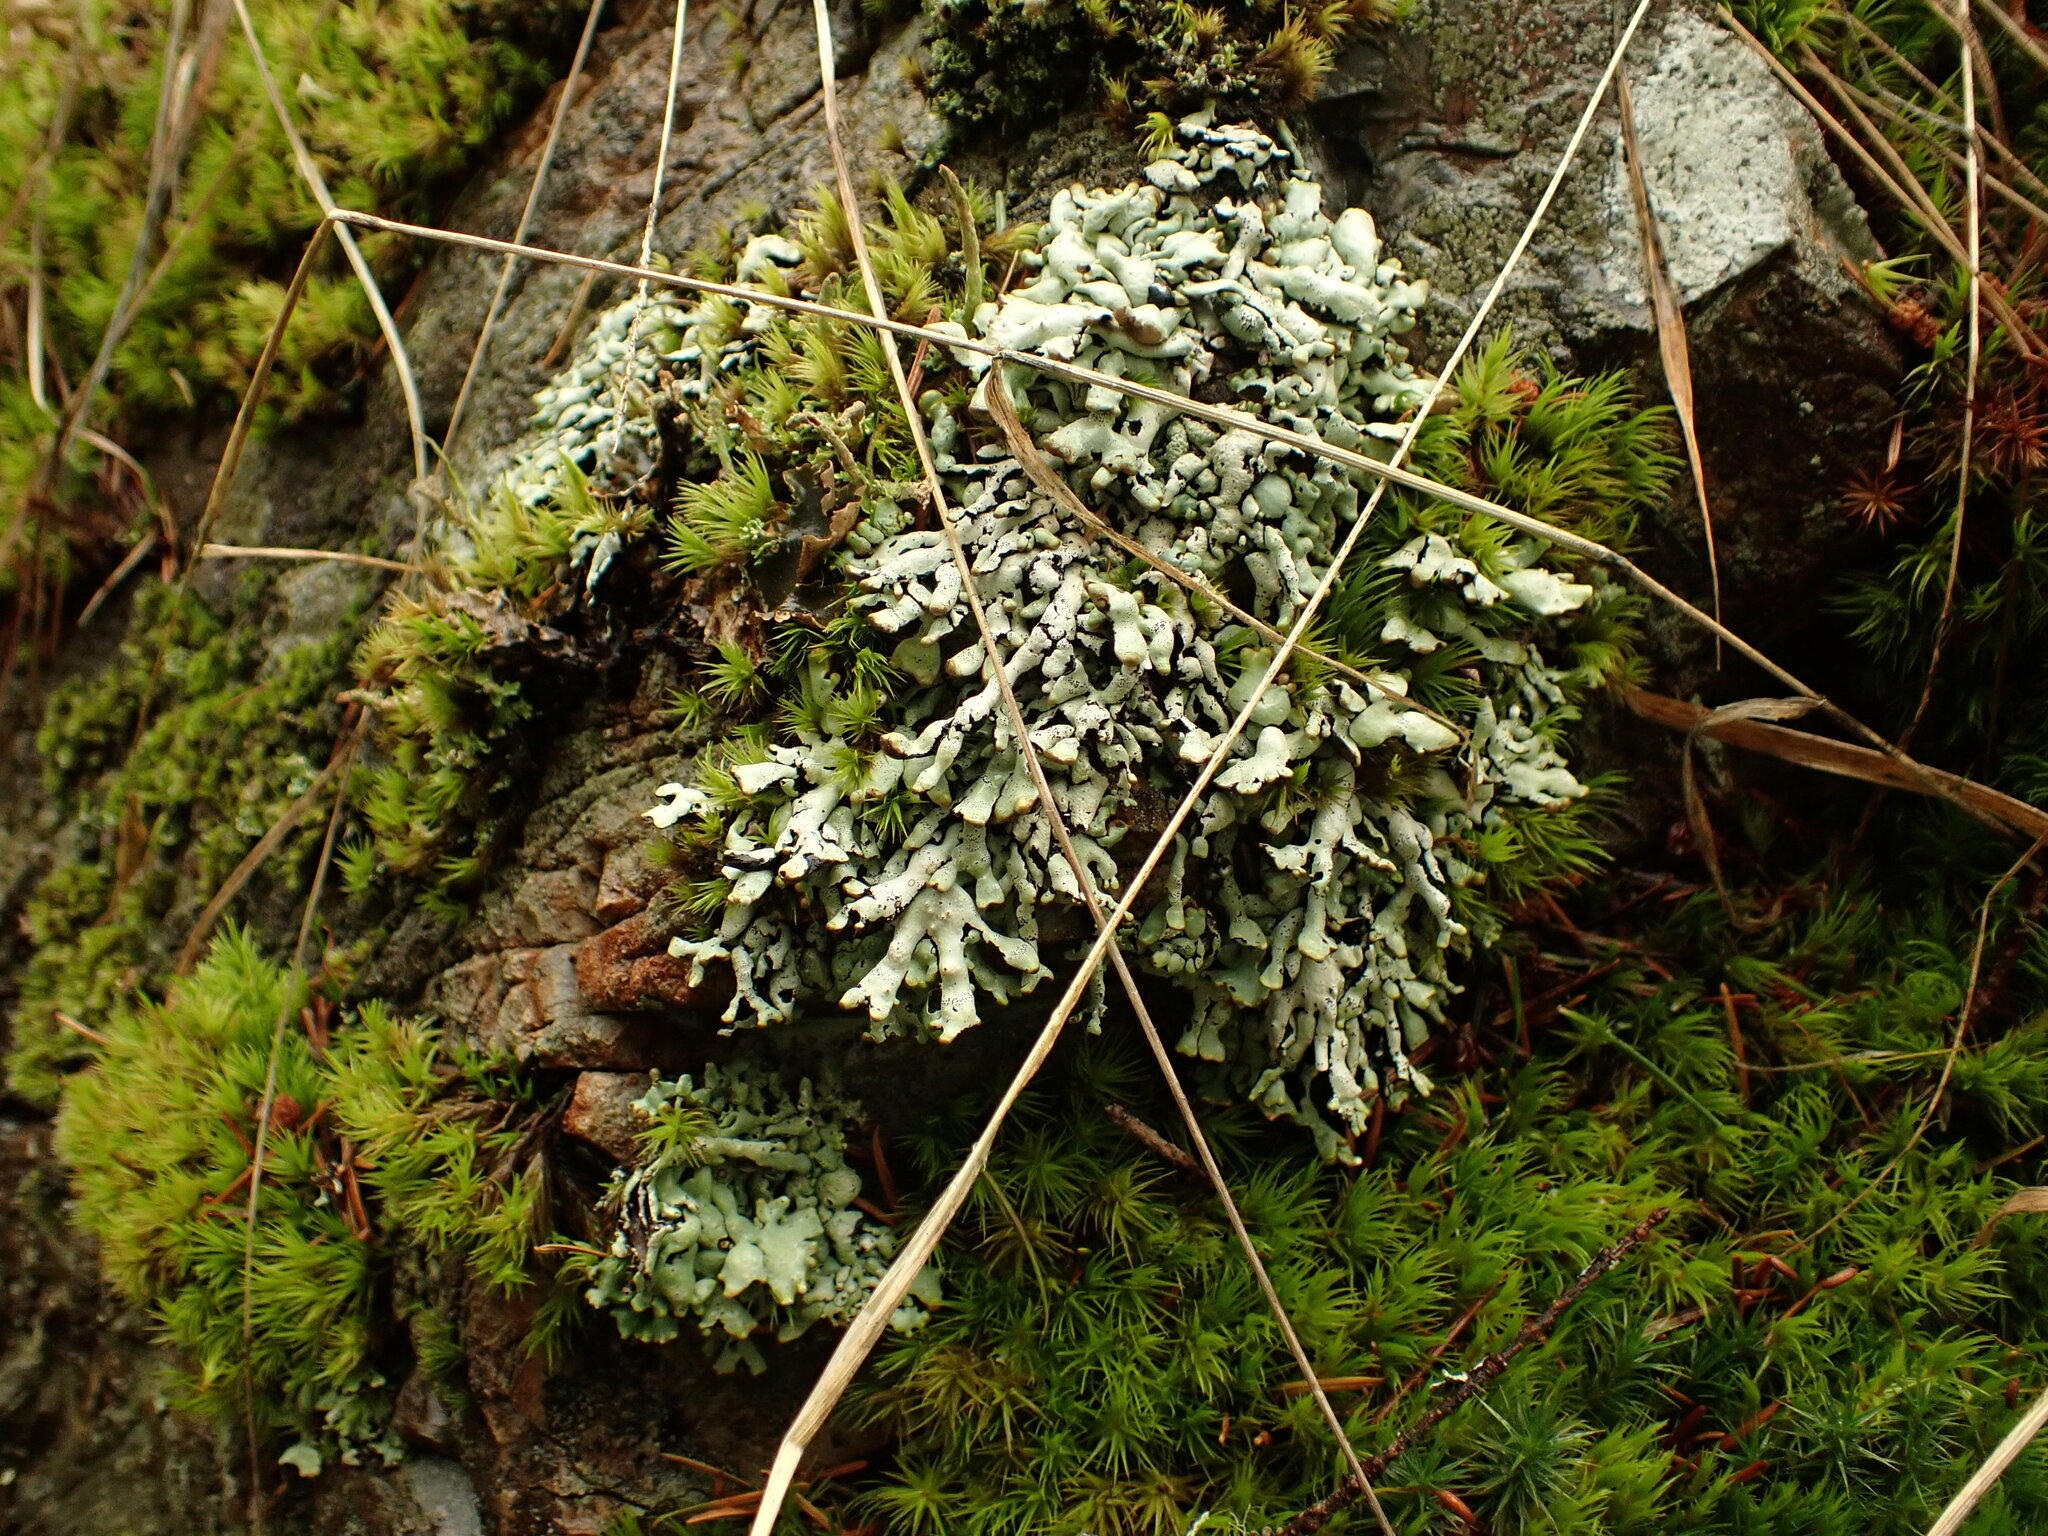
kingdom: Fungi
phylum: Ascomycota
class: Lecanoromycetes
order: Lecanorales
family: Parmeliaceae
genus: Hypogymnia
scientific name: Hypogymnia enteromorpha
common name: Beaded tube lichen
